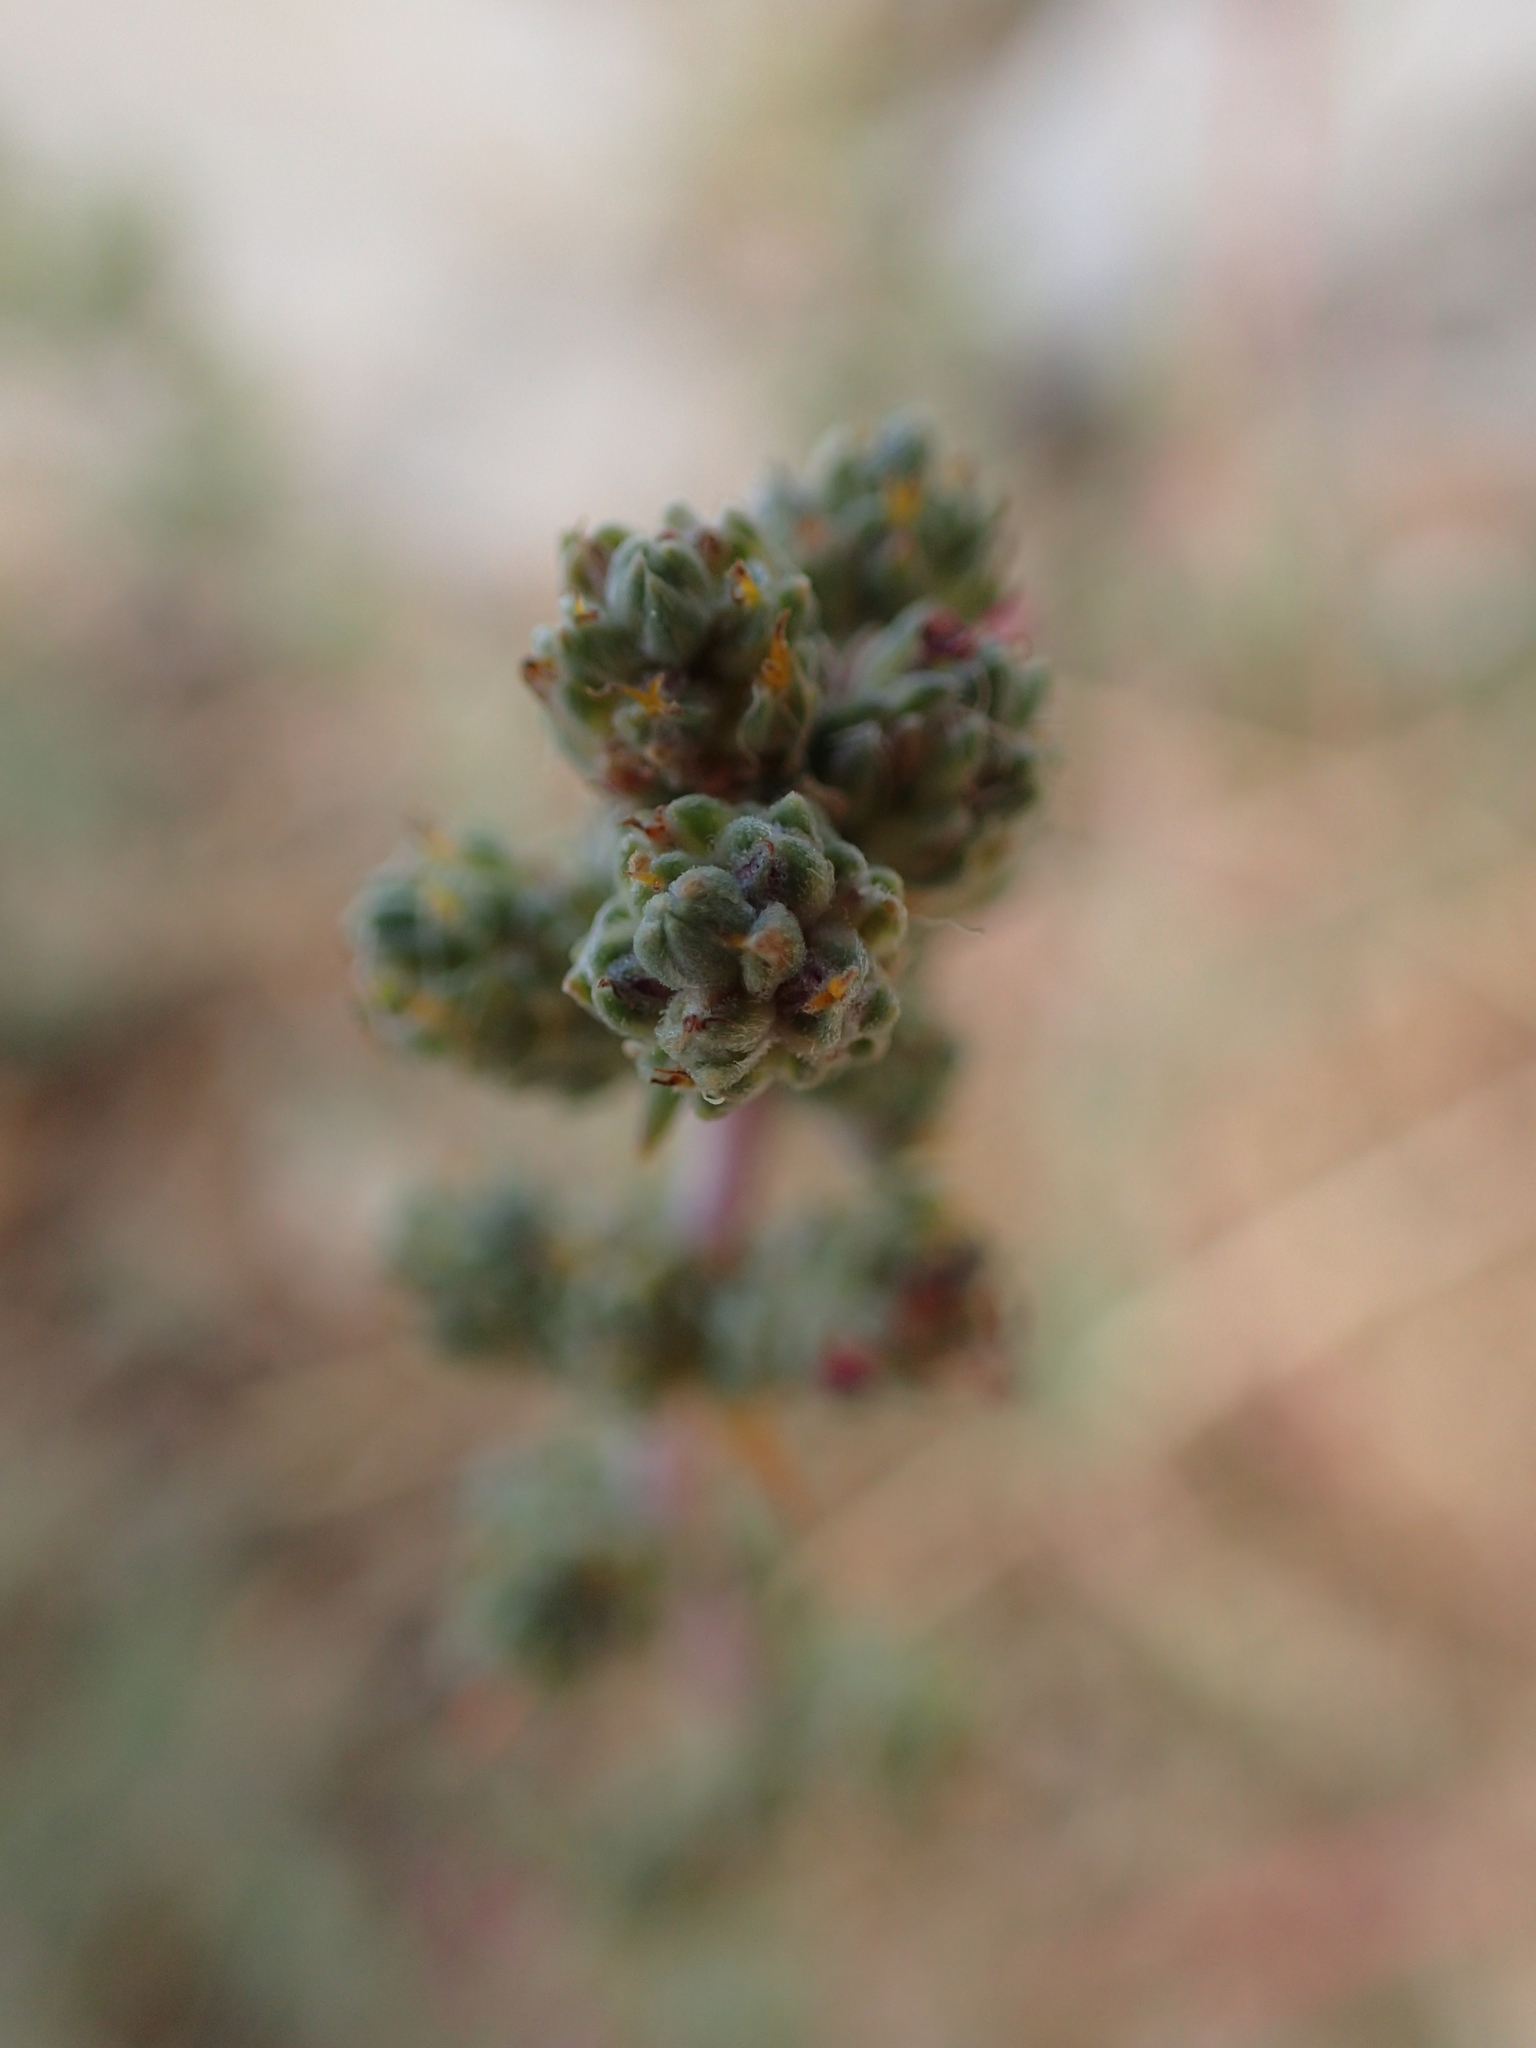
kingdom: Plantae
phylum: Tracheophyta
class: Magnoliopsida
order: Caryophyllales
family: Amaranthaceae
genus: Camphorosma
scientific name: Camphorosma monspeliaca
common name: Camphorfume
